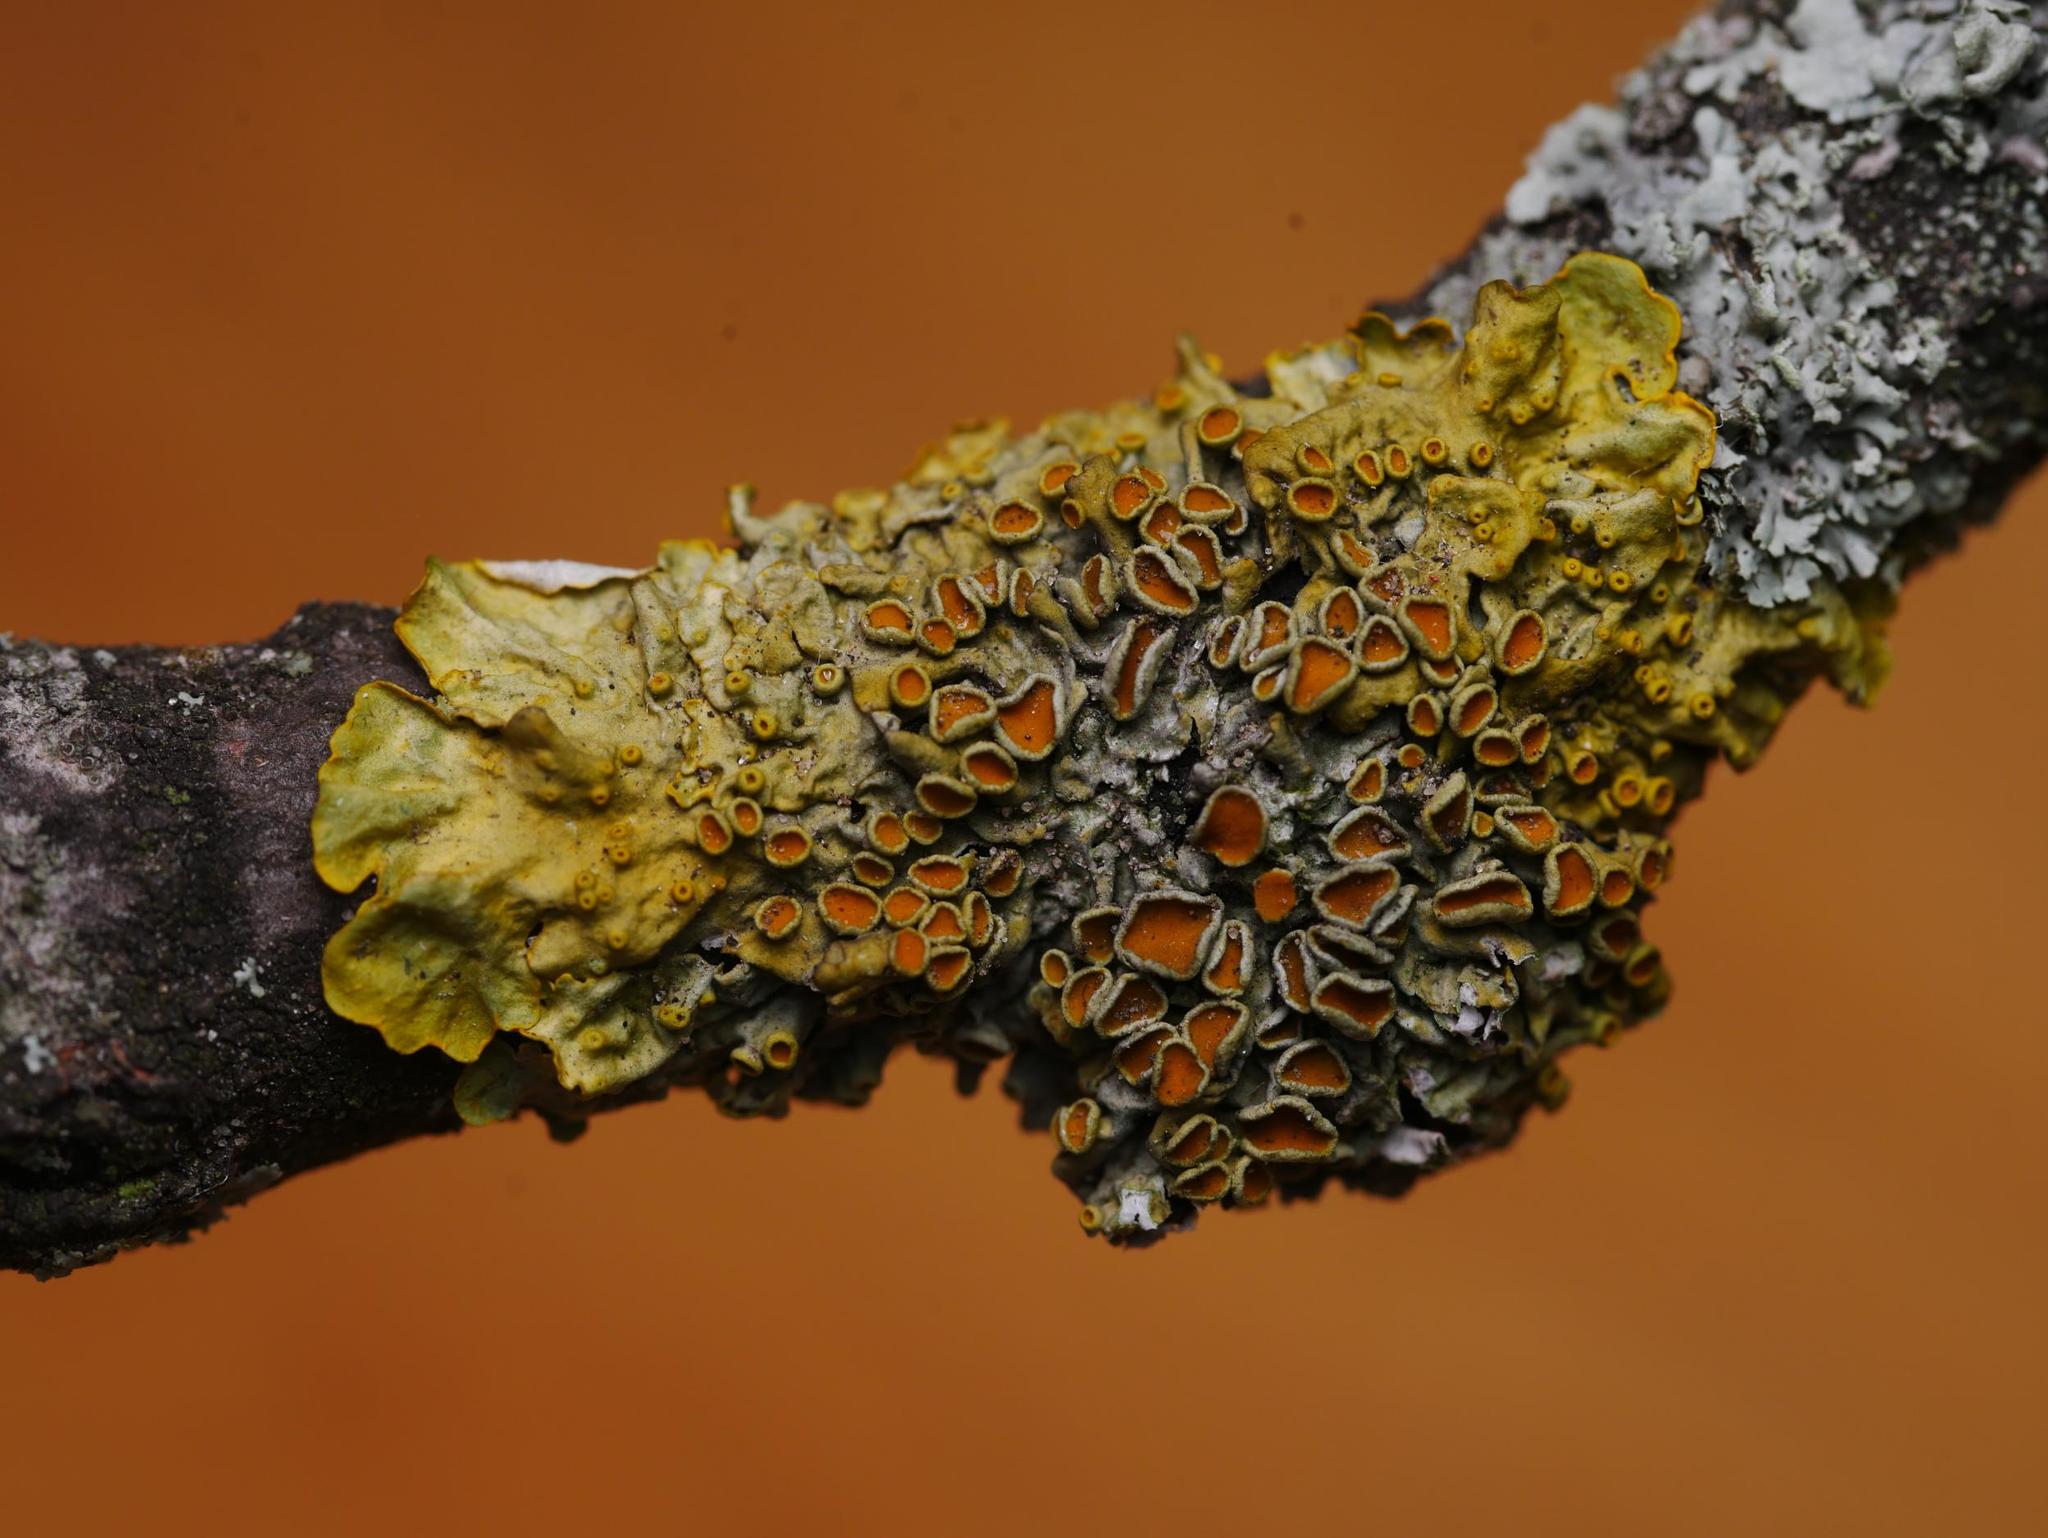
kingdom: Fungi
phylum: Ascomycota
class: Lecanoromycetes
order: Teloschistales
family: Teloschistaceae
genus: Xanthoria
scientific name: Xanthoria parietina
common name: Common orange lichen
